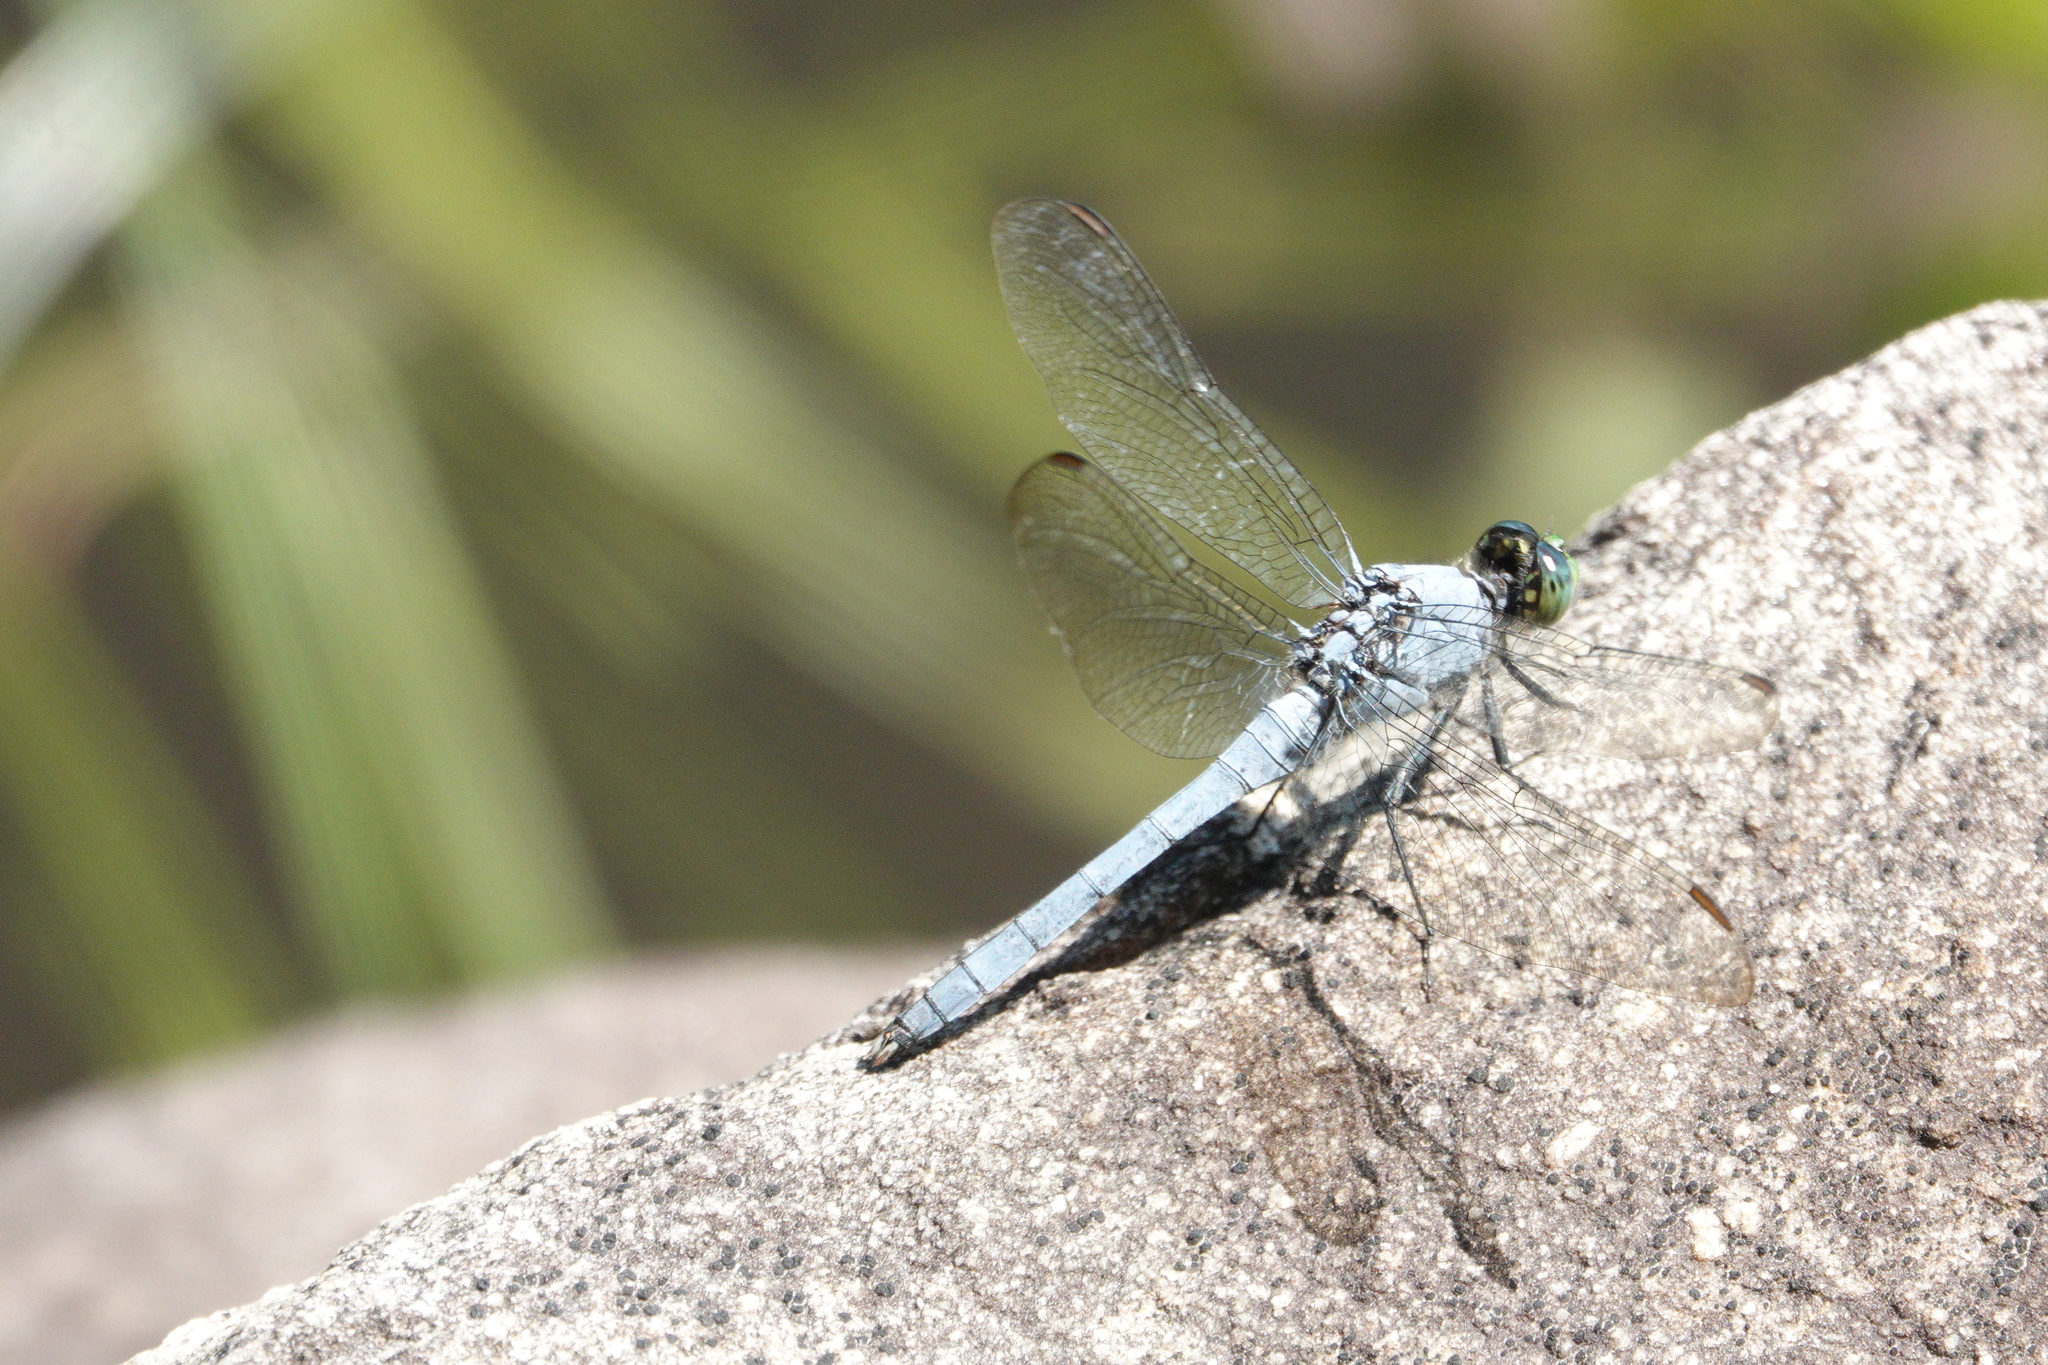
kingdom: Animalia
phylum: Arthropoda
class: Insecta
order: Odonata
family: Libellulidae
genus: Erythemis
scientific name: Erythemis simplicicollis
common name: Eastern pondhawk
